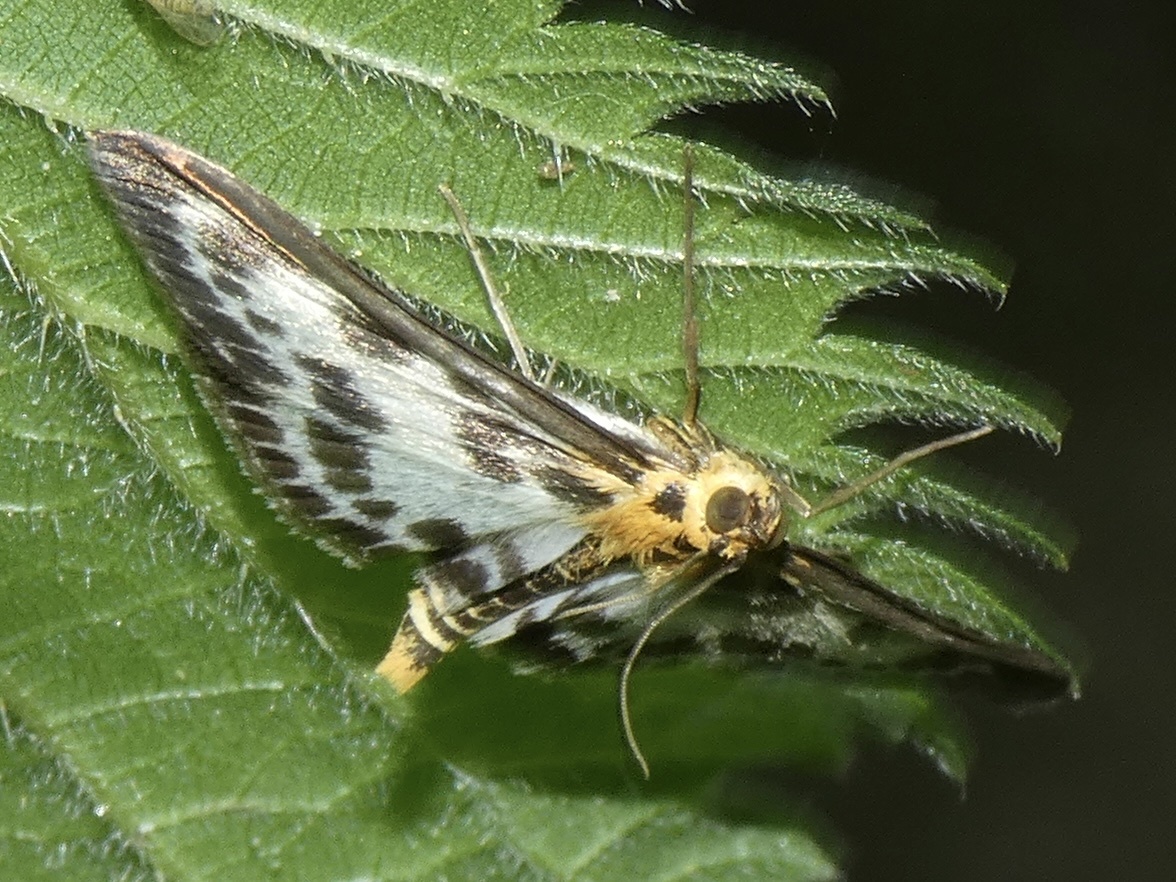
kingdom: Animalia
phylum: Arthropoda
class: Insecta
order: Lepidoptera
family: Crambidae
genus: Anania
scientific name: Anania hortulata
